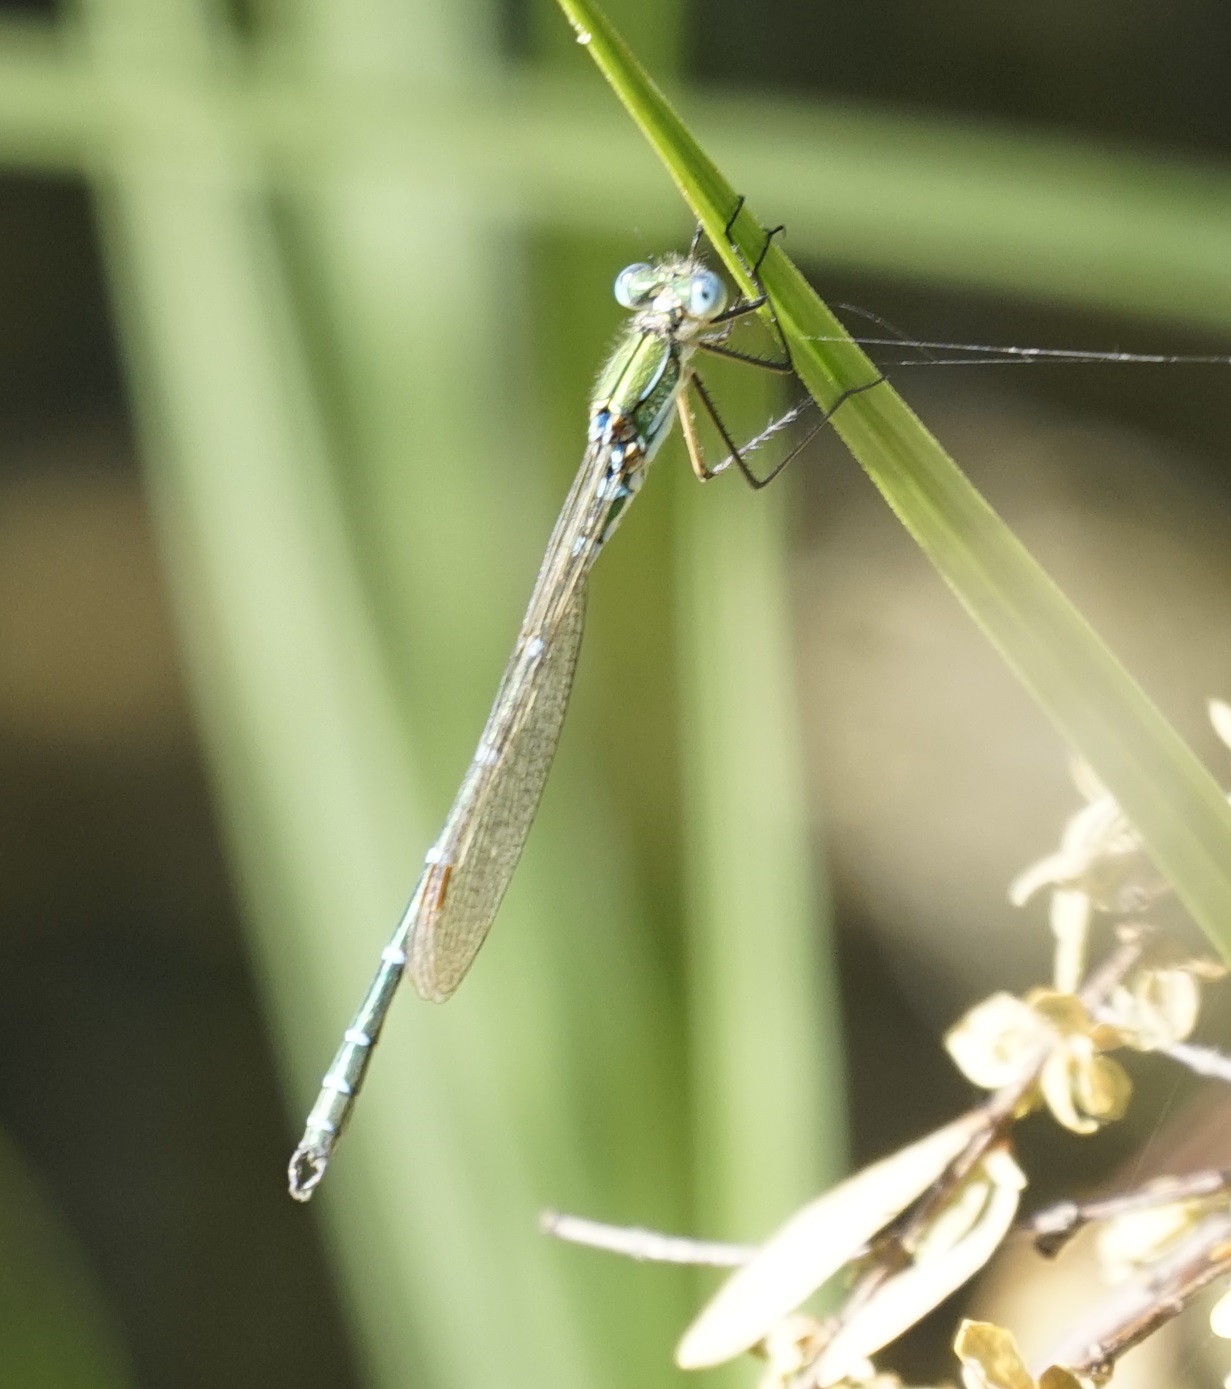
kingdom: Animalia
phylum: Arthropoda
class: Insecta
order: Odonata
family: Lestidae
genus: Austrolestes
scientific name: Austrolestes cingulatus
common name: Metallic ringtail
